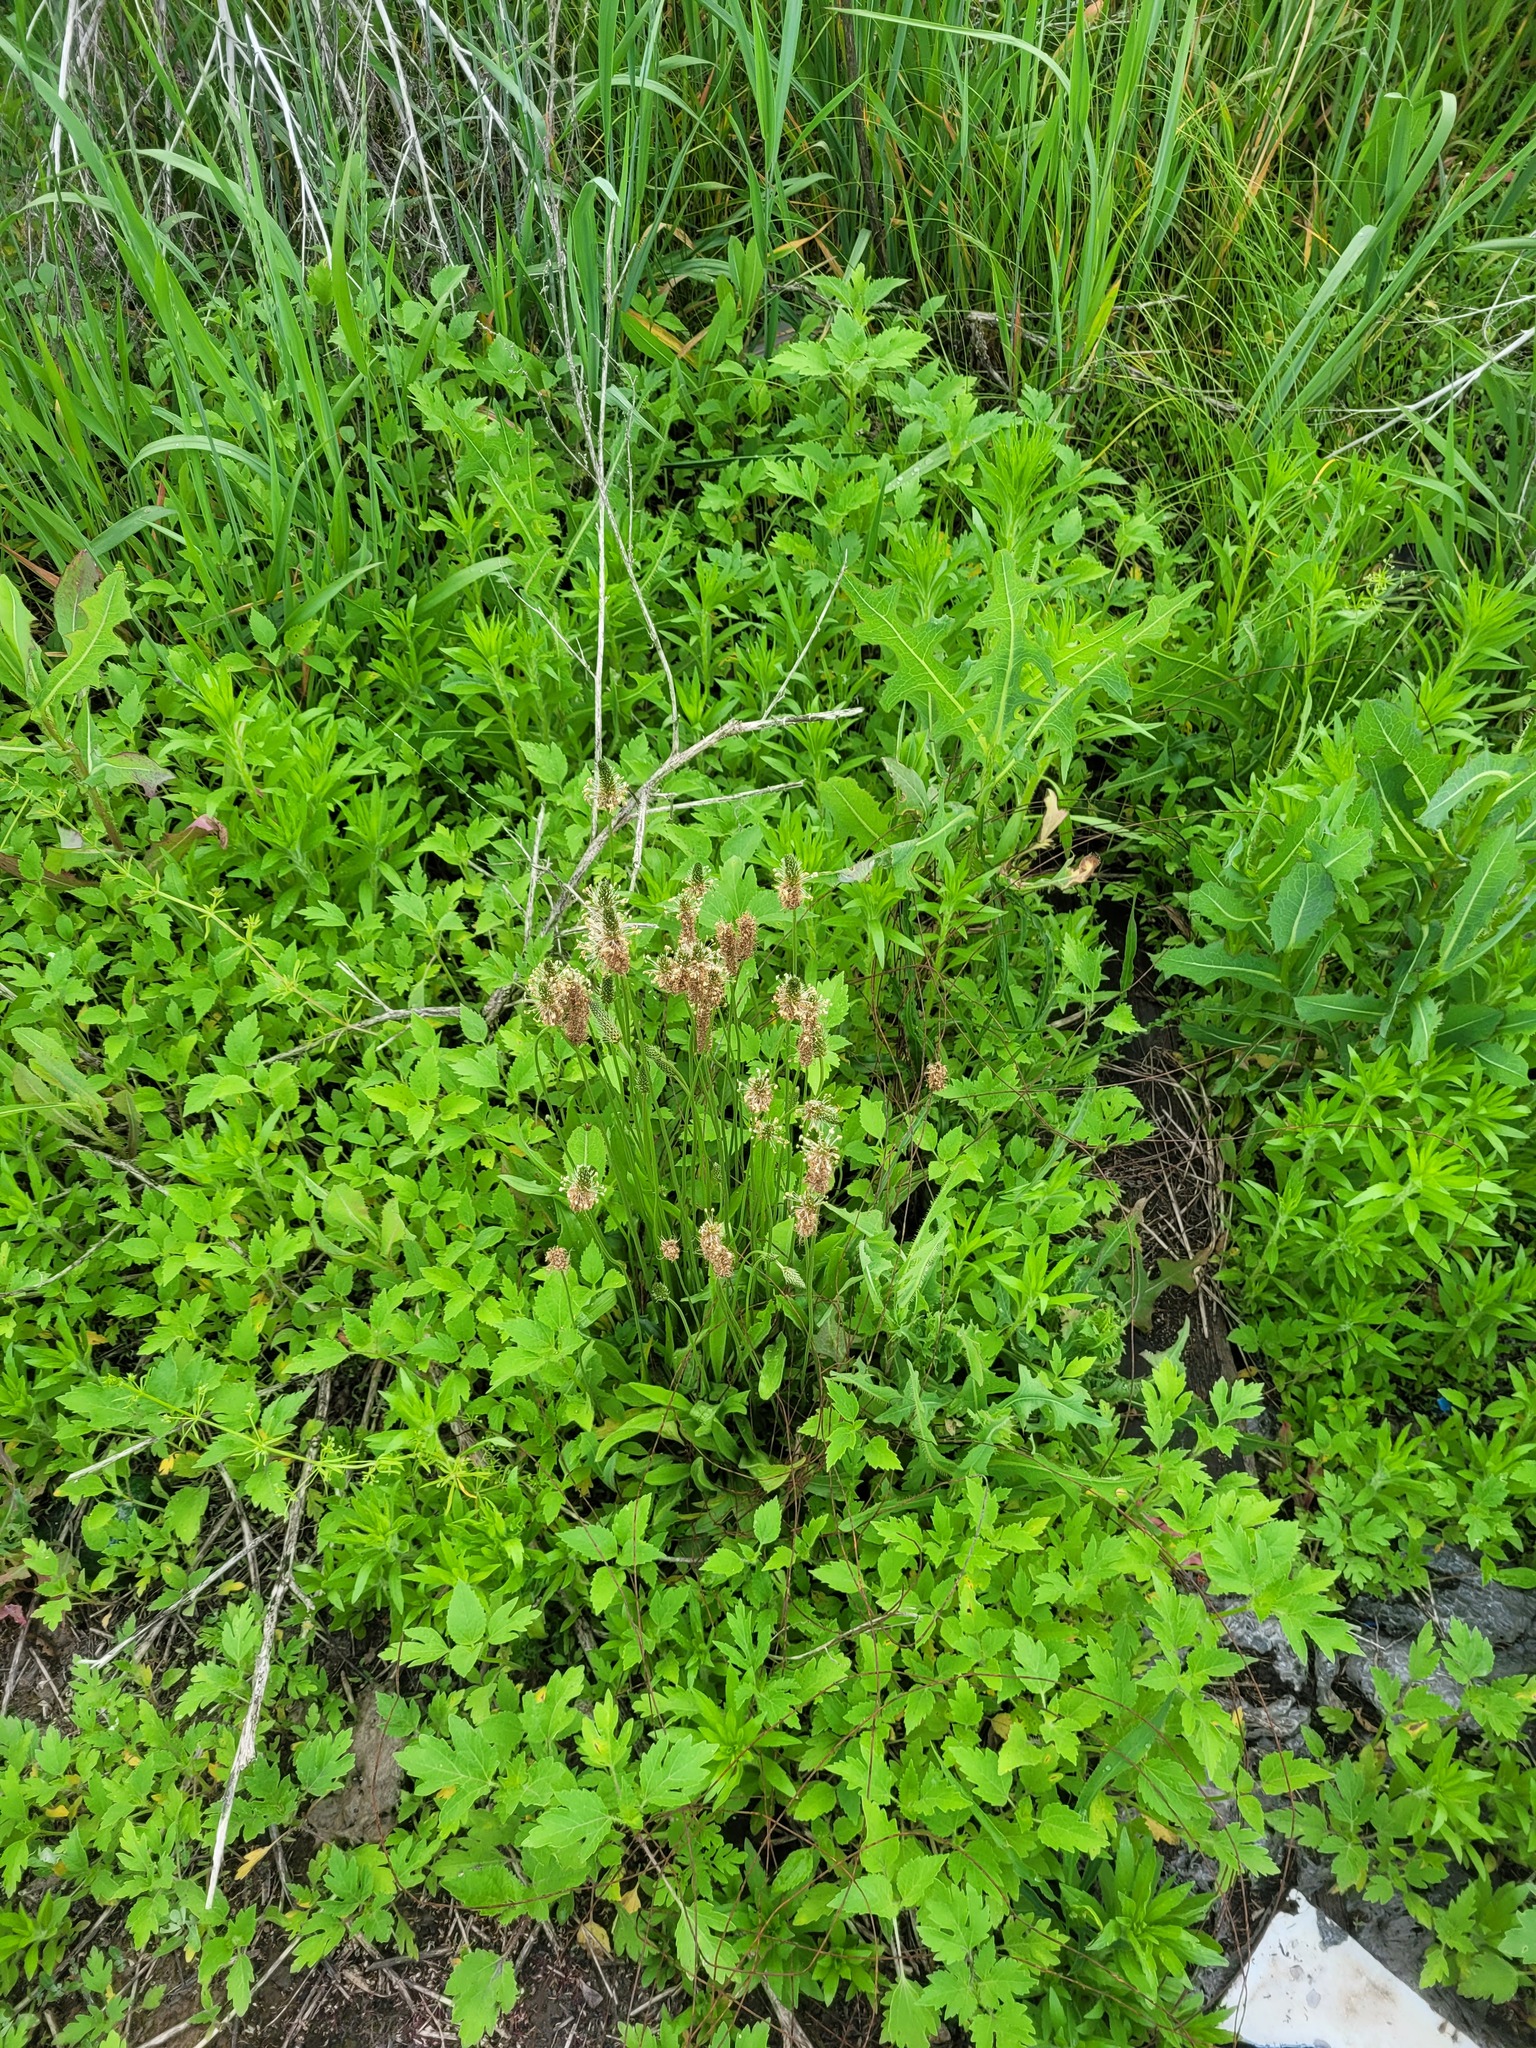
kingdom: Plantae
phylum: Tracheophyta
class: Magnoliopsida
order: Lamiales
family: Plantaginaceae
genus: Plantago
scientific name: Plantago lanceolata
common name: Ribwort plantain
